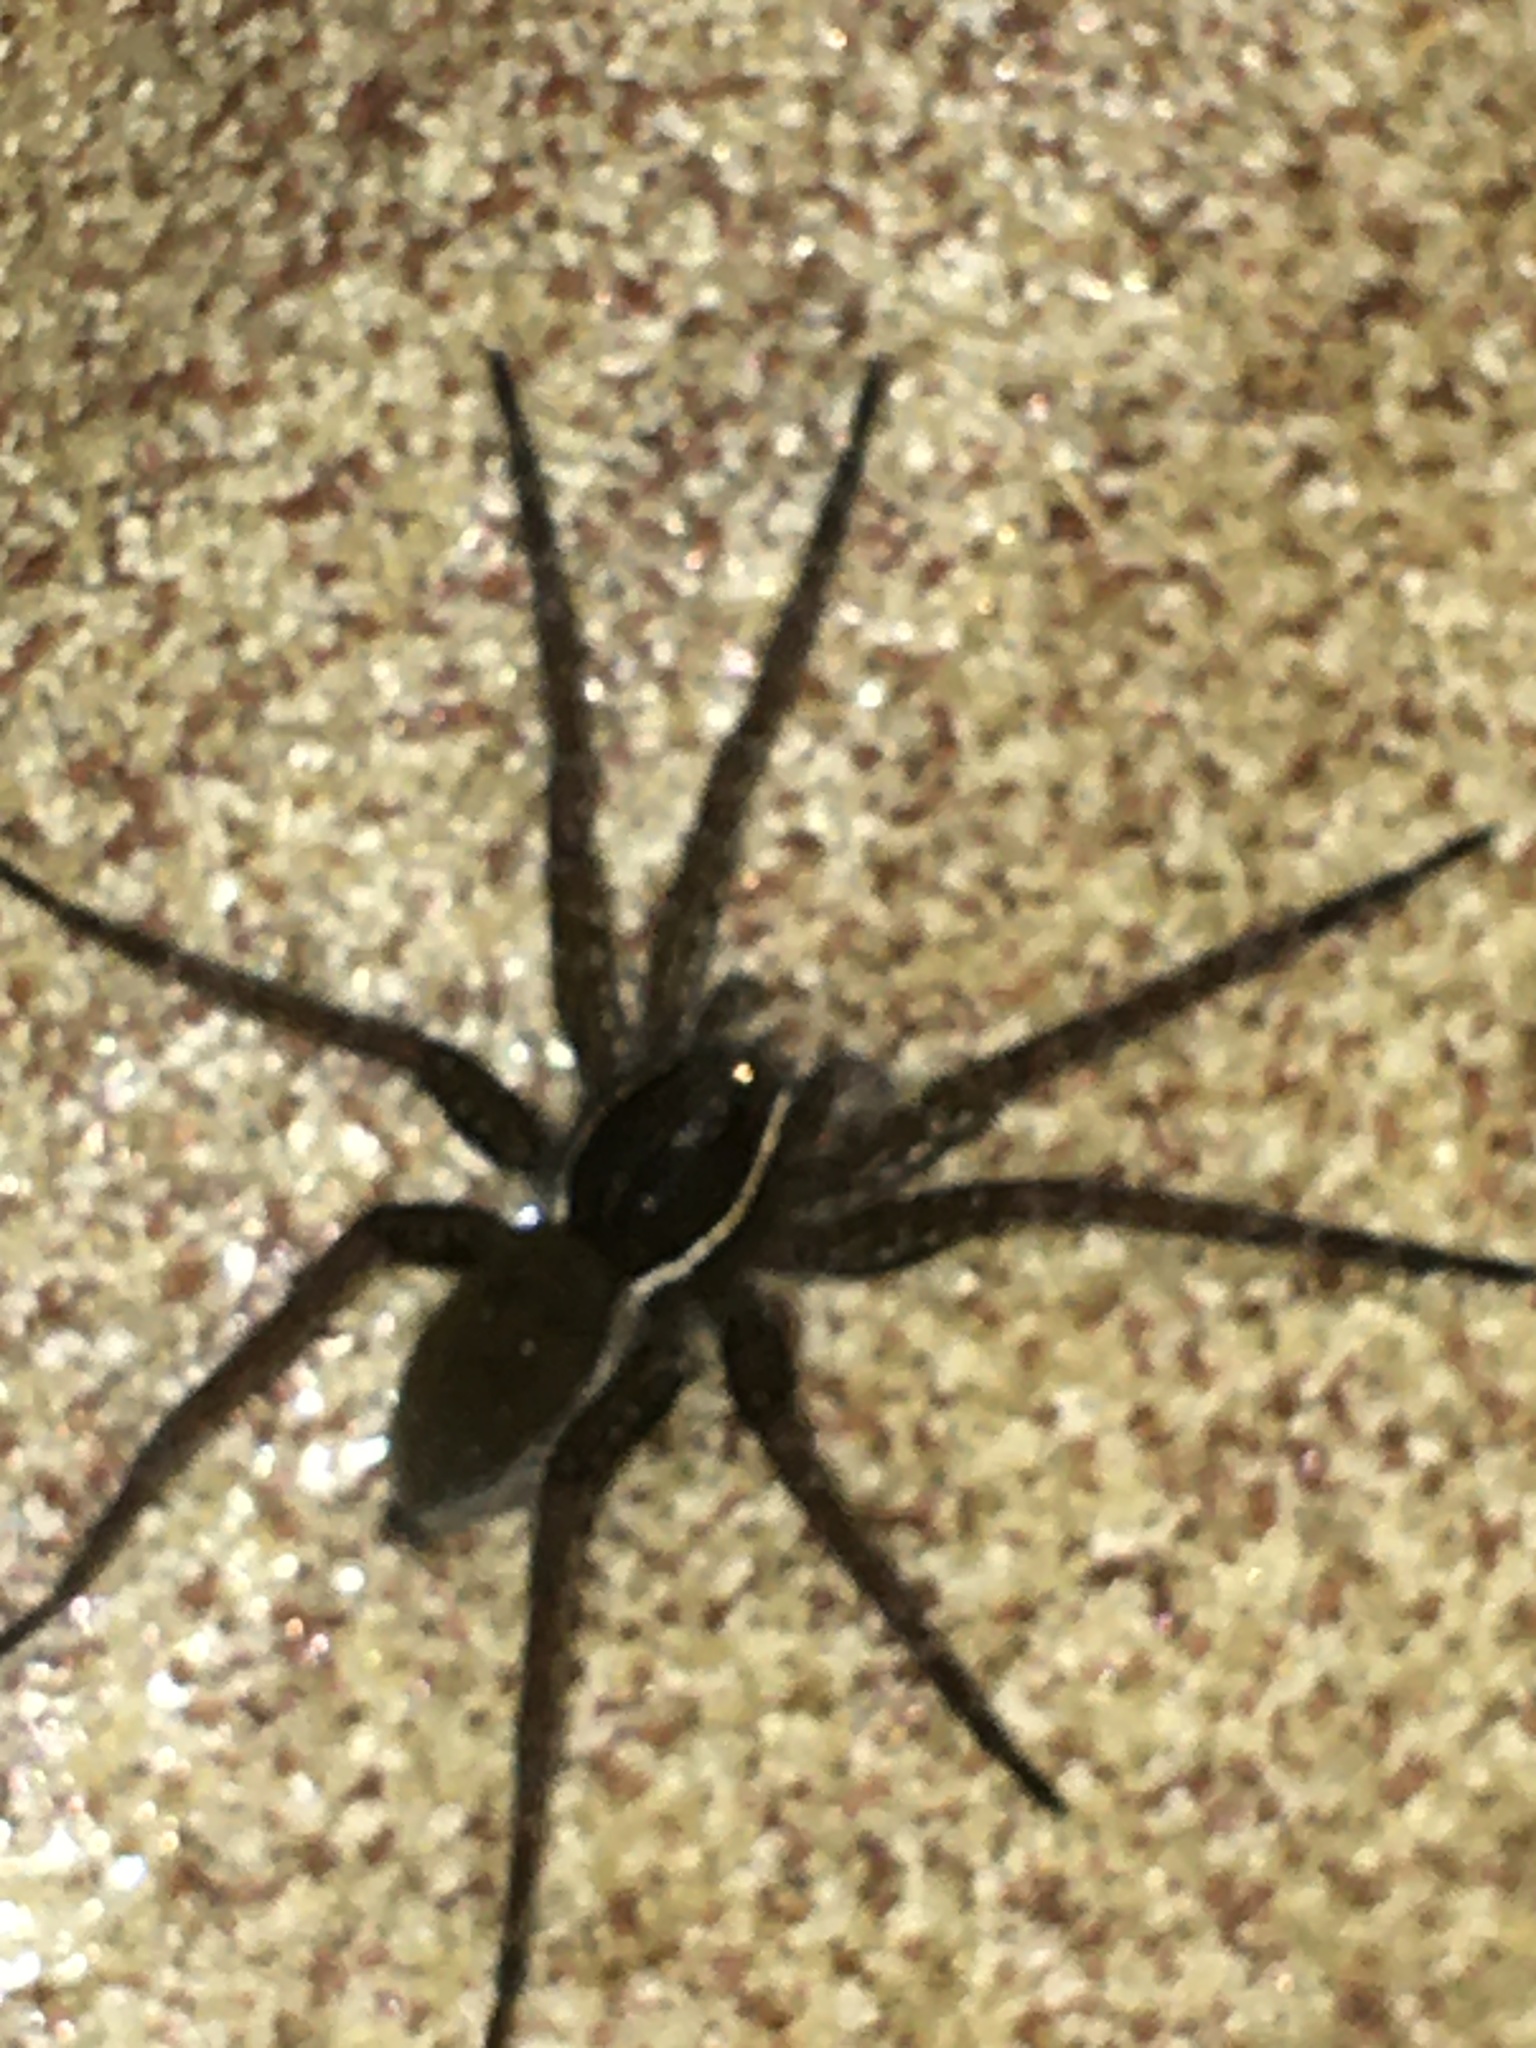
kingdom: Animalia
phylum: Arthropoda
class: Arachnida
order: Araneae
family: Pisauridae
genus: Dolomedes
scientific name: Dolomedes triton
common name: Six-spotted fishing spider
